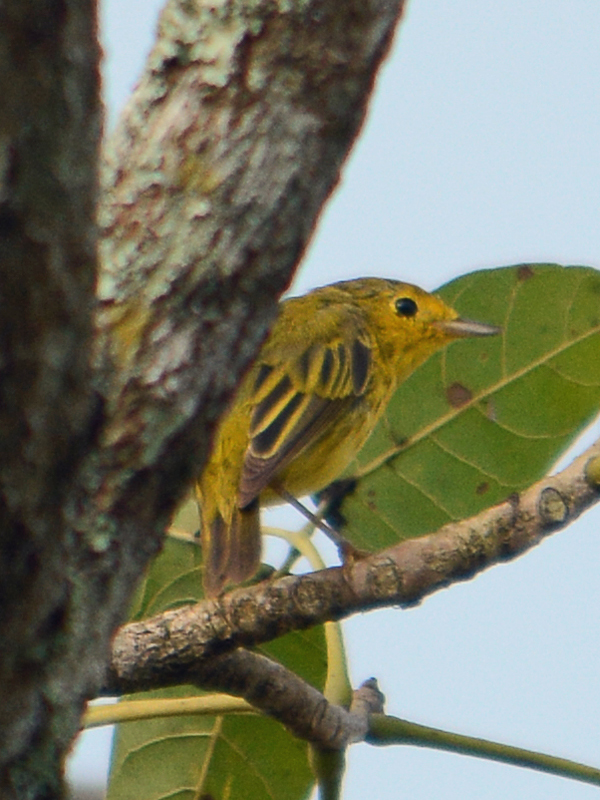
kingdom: Animalia
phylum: Chordata
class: Aves
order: Passeriformes
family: Parulidae
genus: Setophaga
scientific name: Setophaga petechia
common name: Yellow warbler
